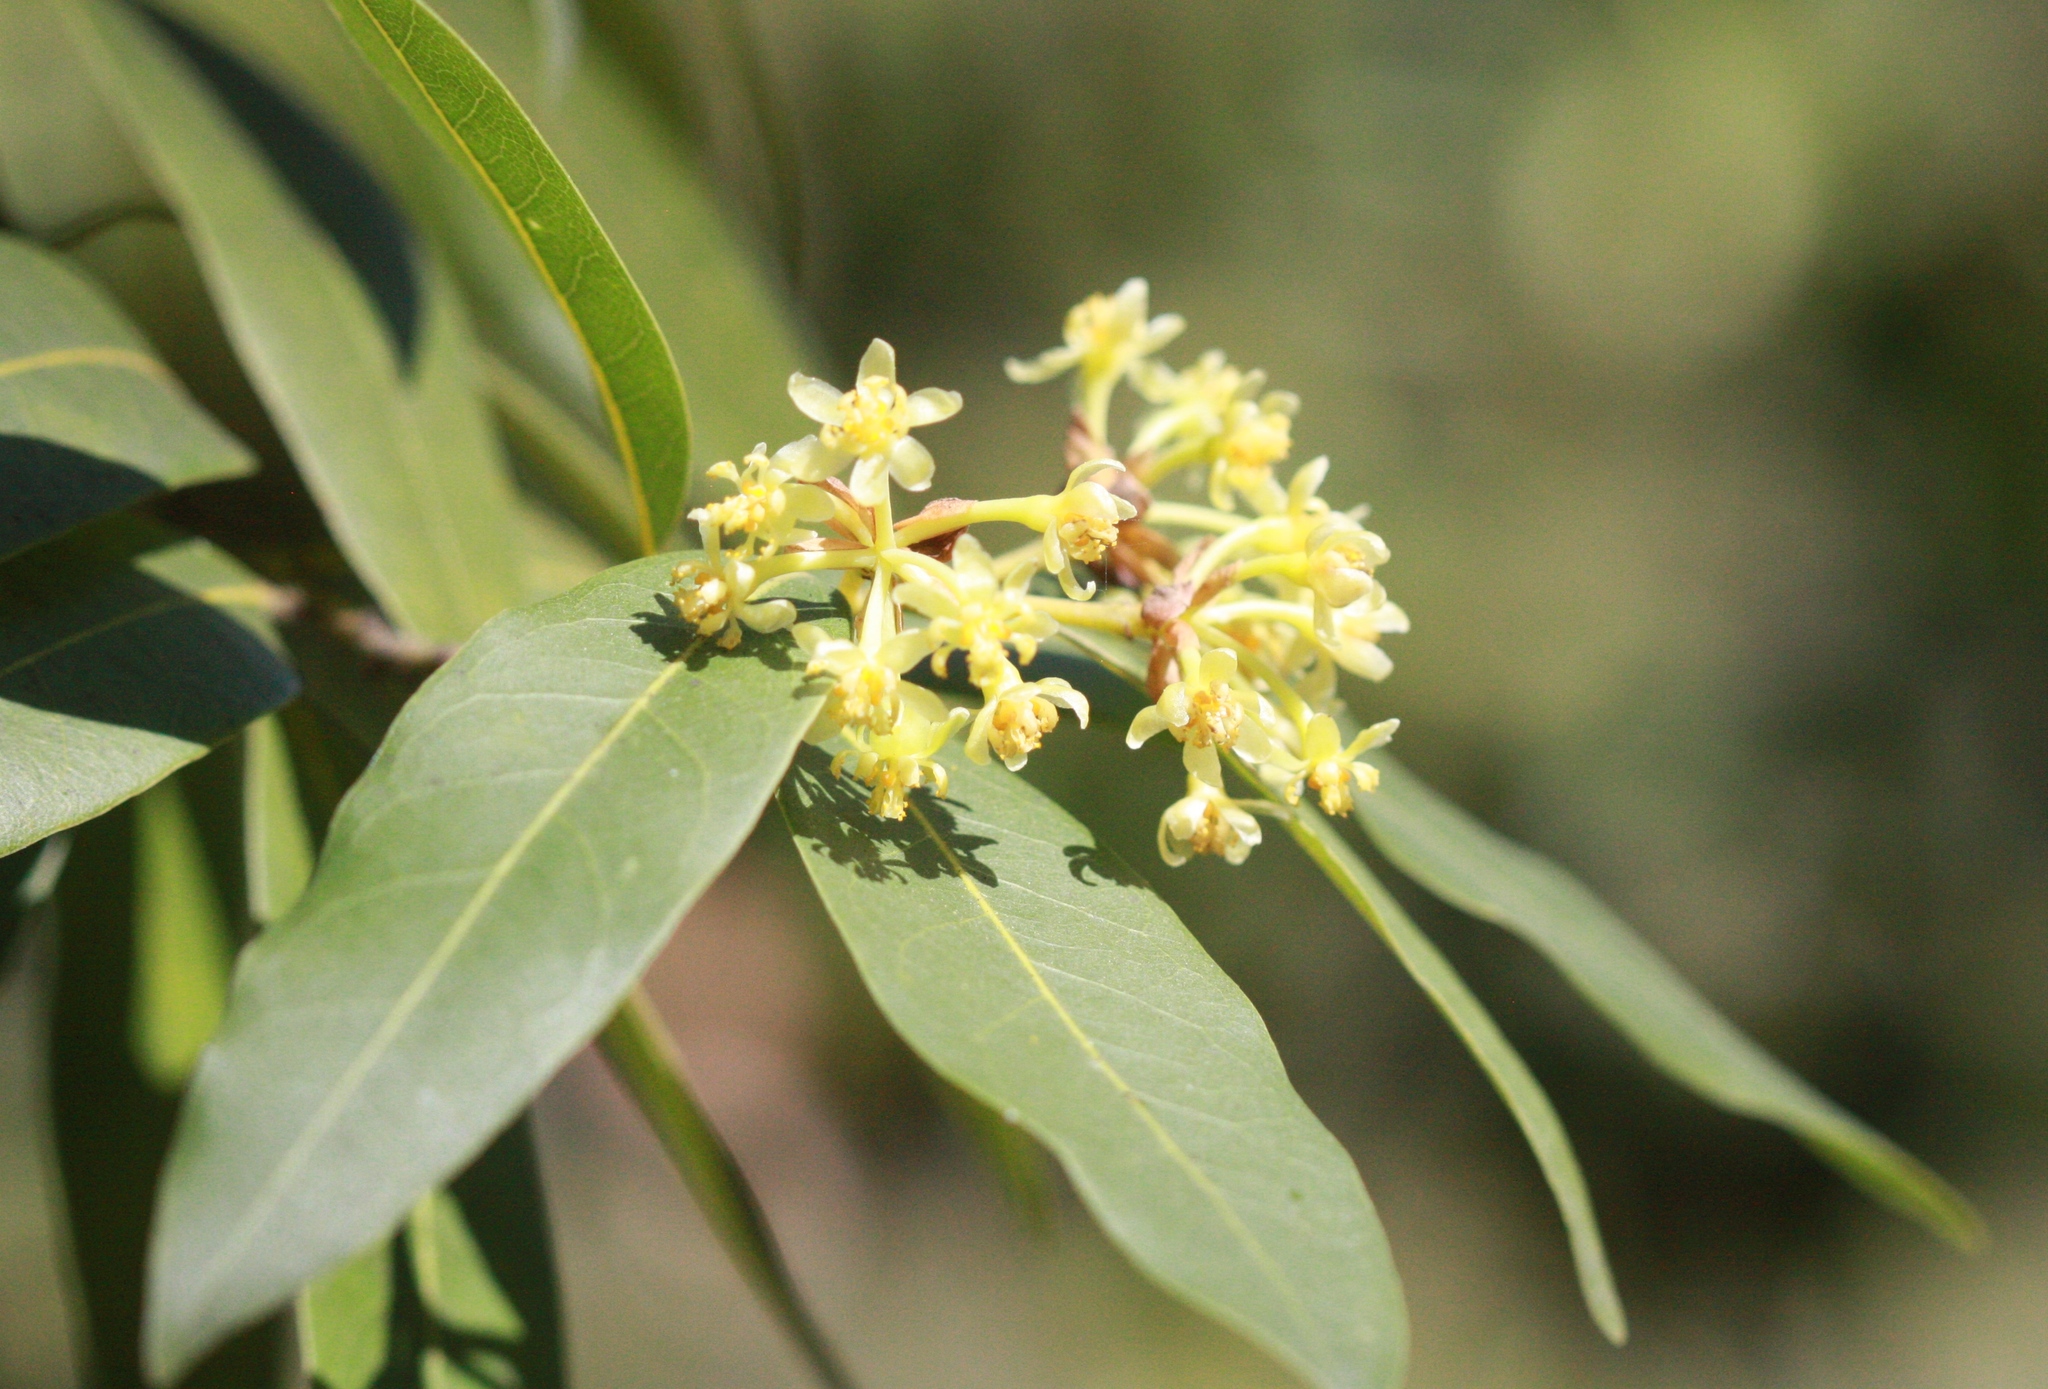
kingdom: Plantae
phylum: Tracheophyta
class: Magnoliopsida
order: Laurales
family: Lauraceae
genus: Umbellularia
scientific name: Umbellularia californica
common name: California bay
